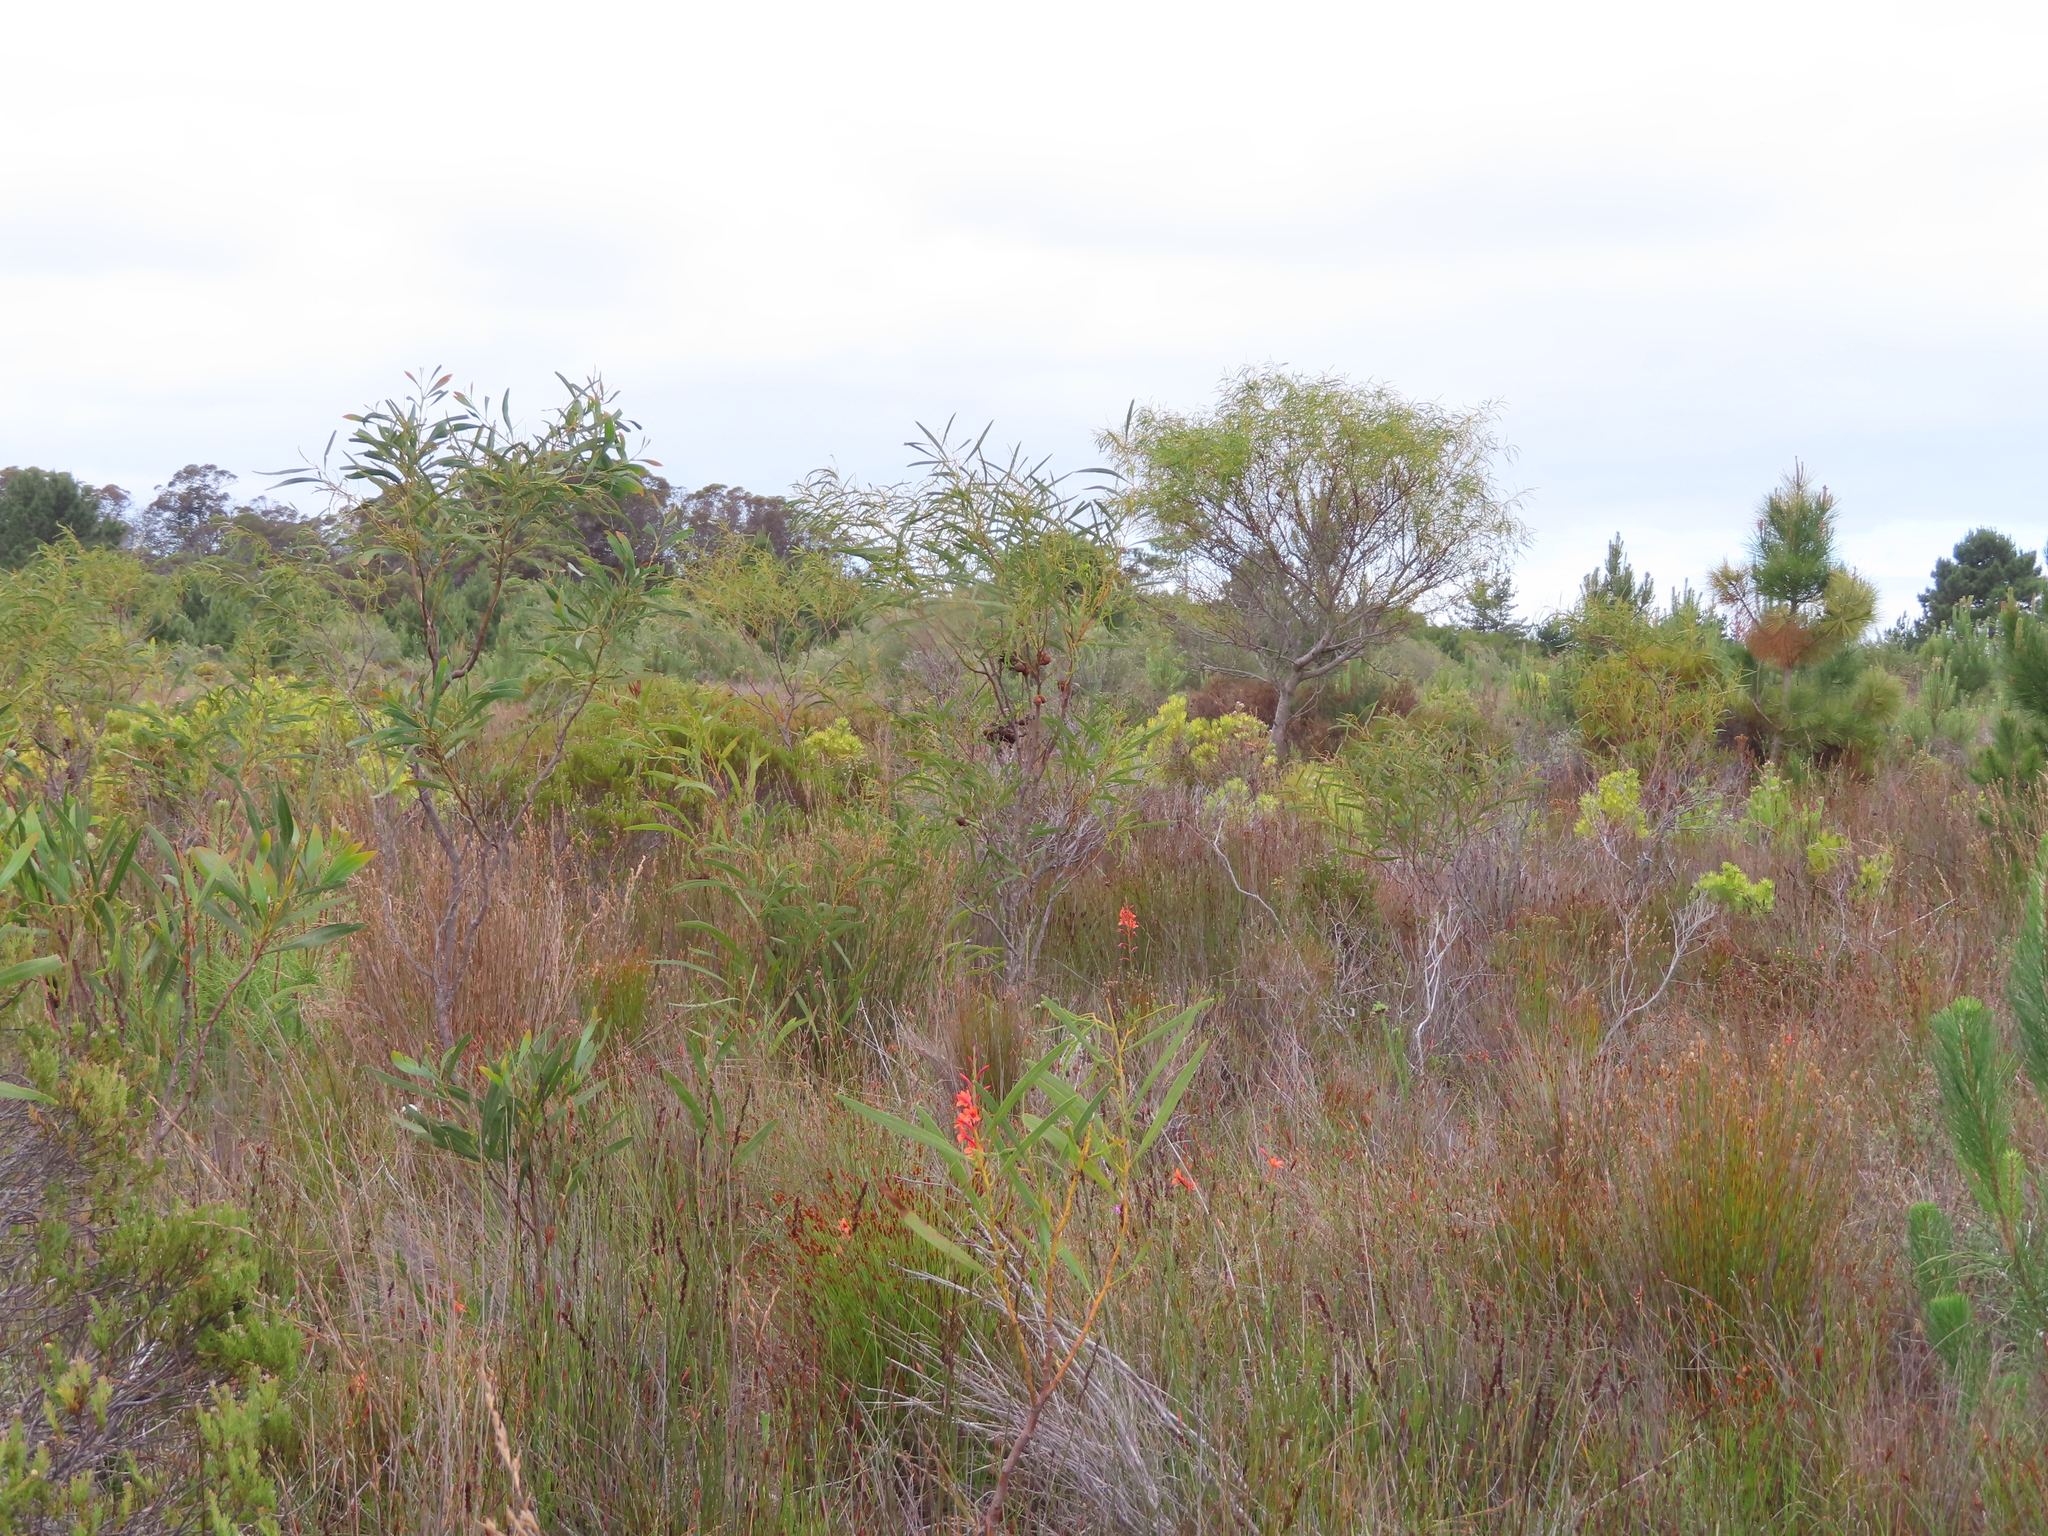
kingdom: Plantae
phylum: Tracheophyta
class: Magnoliopsida
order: Fabales
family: Fabaceae
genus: Acacia
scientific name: Acacia saligna
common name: Orange wattle
